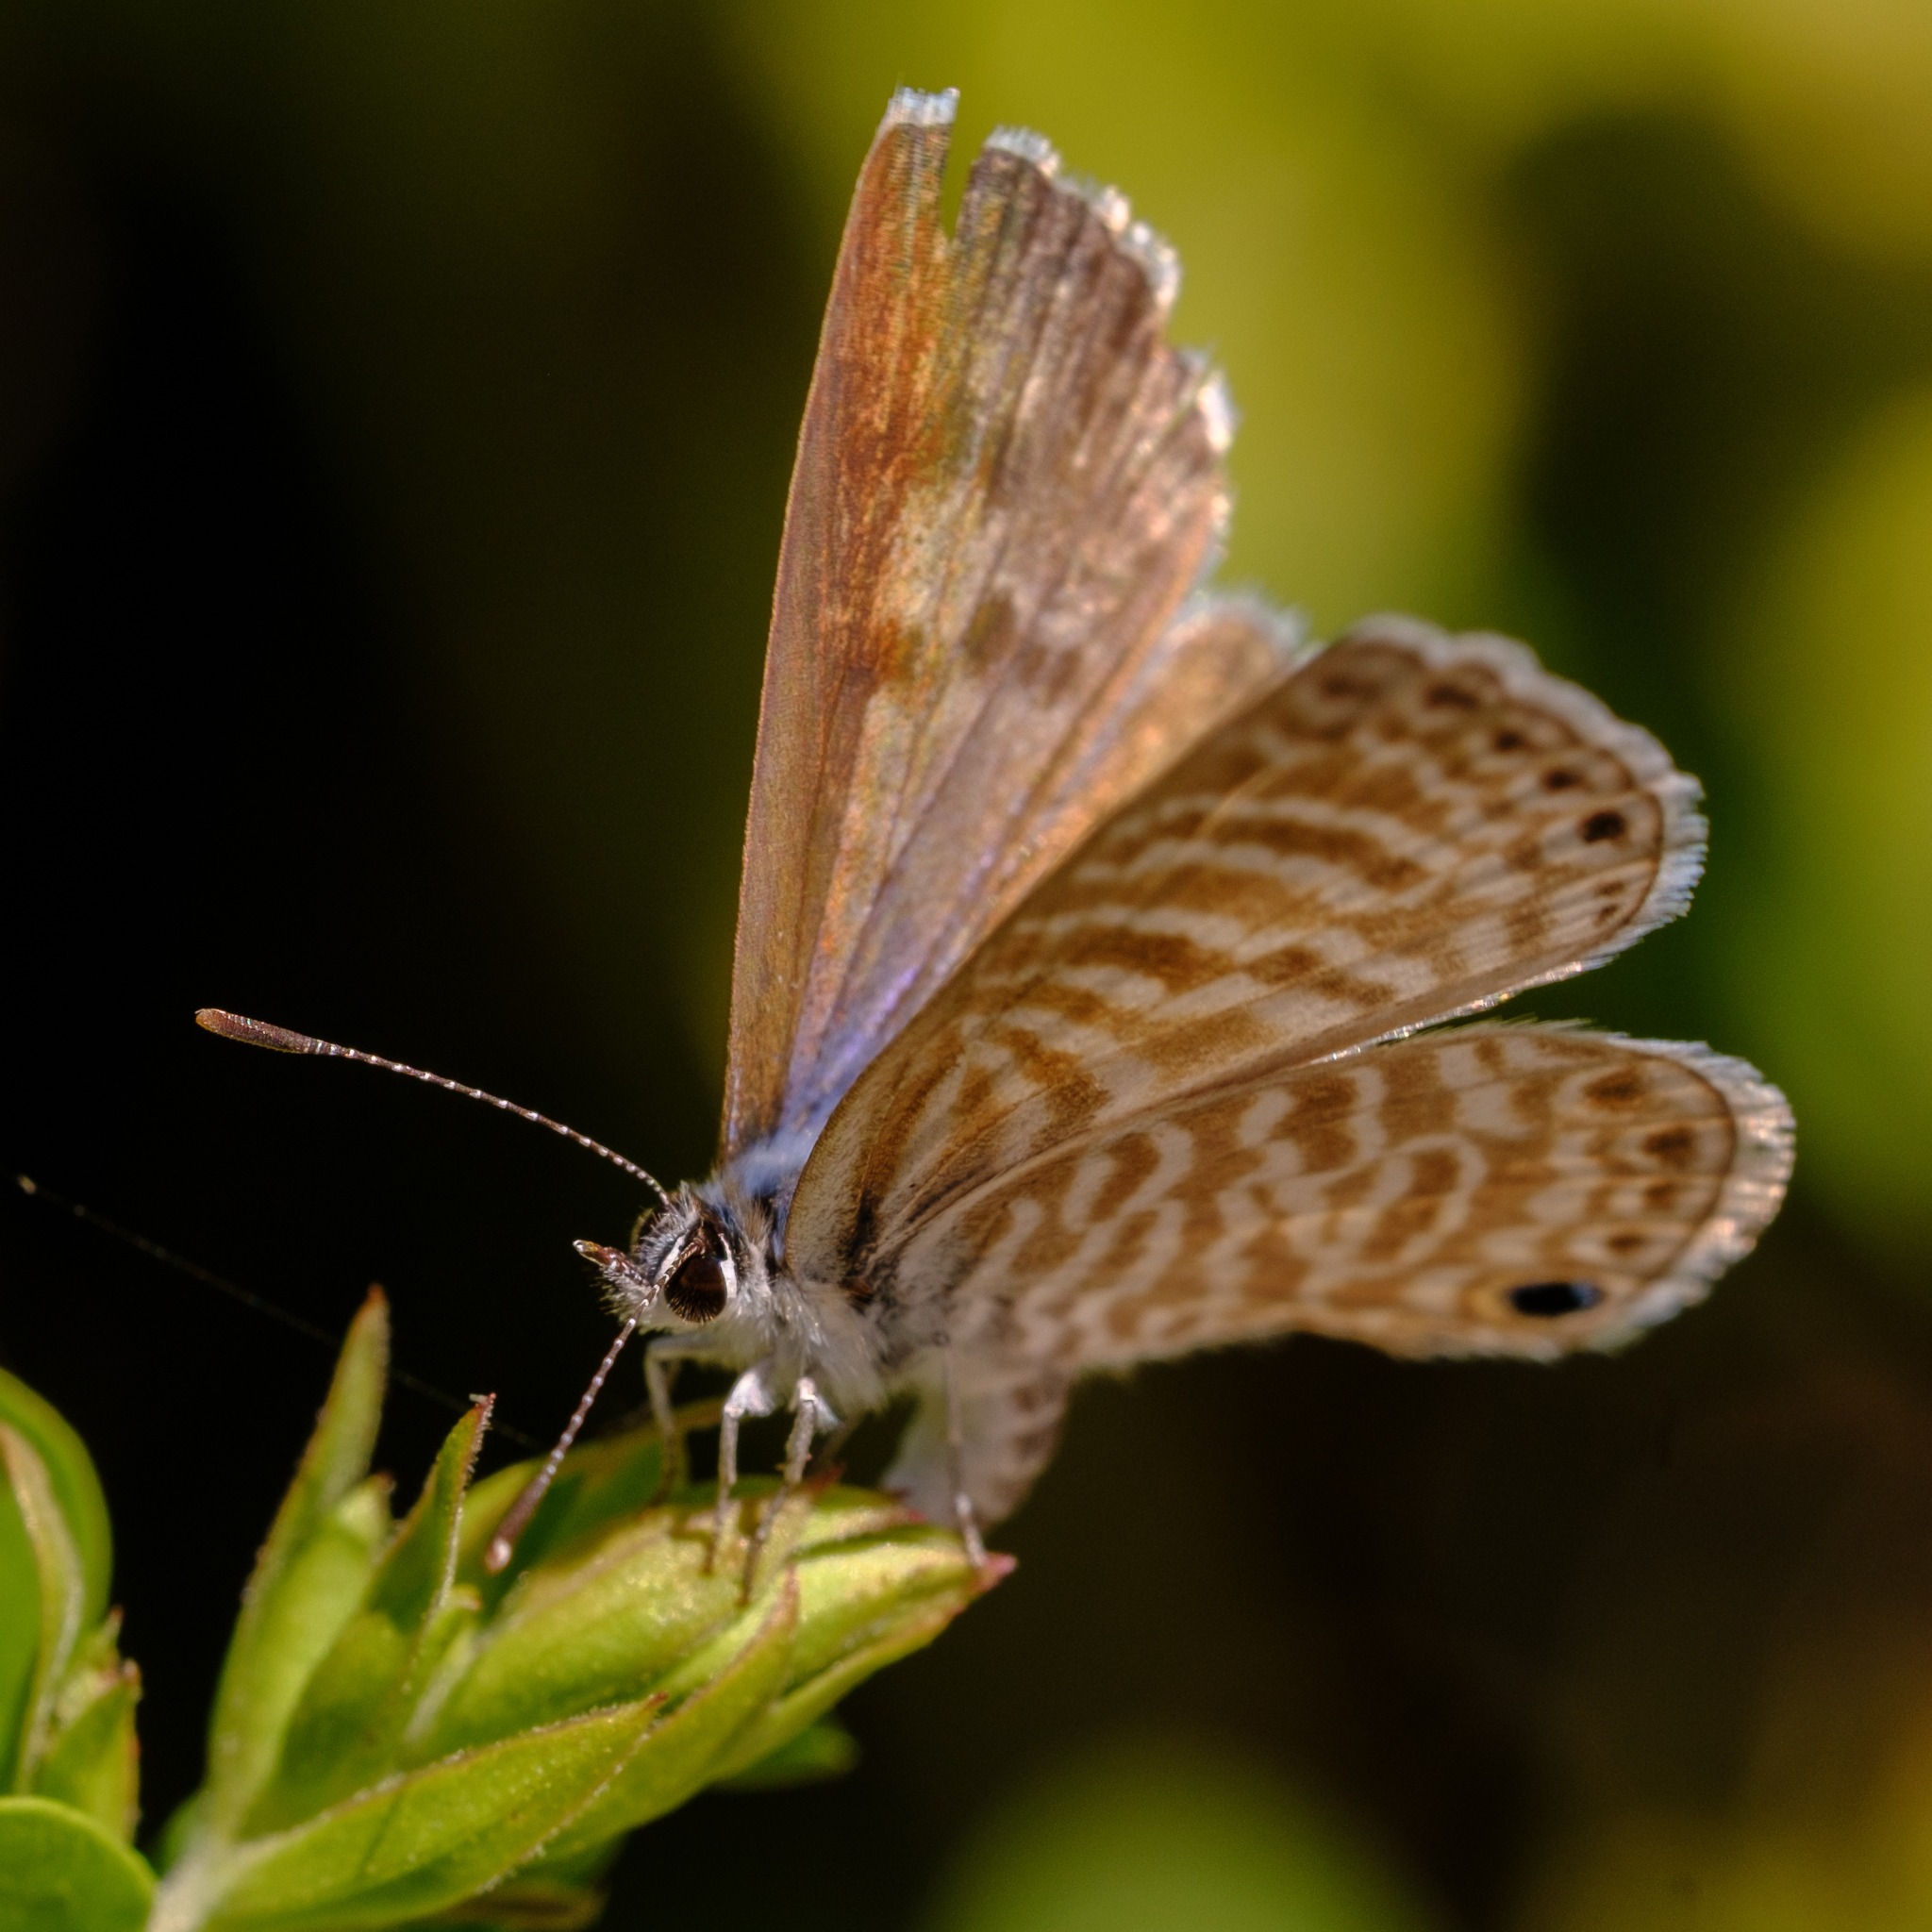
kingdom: Animalia
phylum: Arthropoda
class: Insecta
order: Lepidoptera
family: Lycaenidae
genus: Leptotes
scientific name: Leptotes marina
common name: Marine blue
